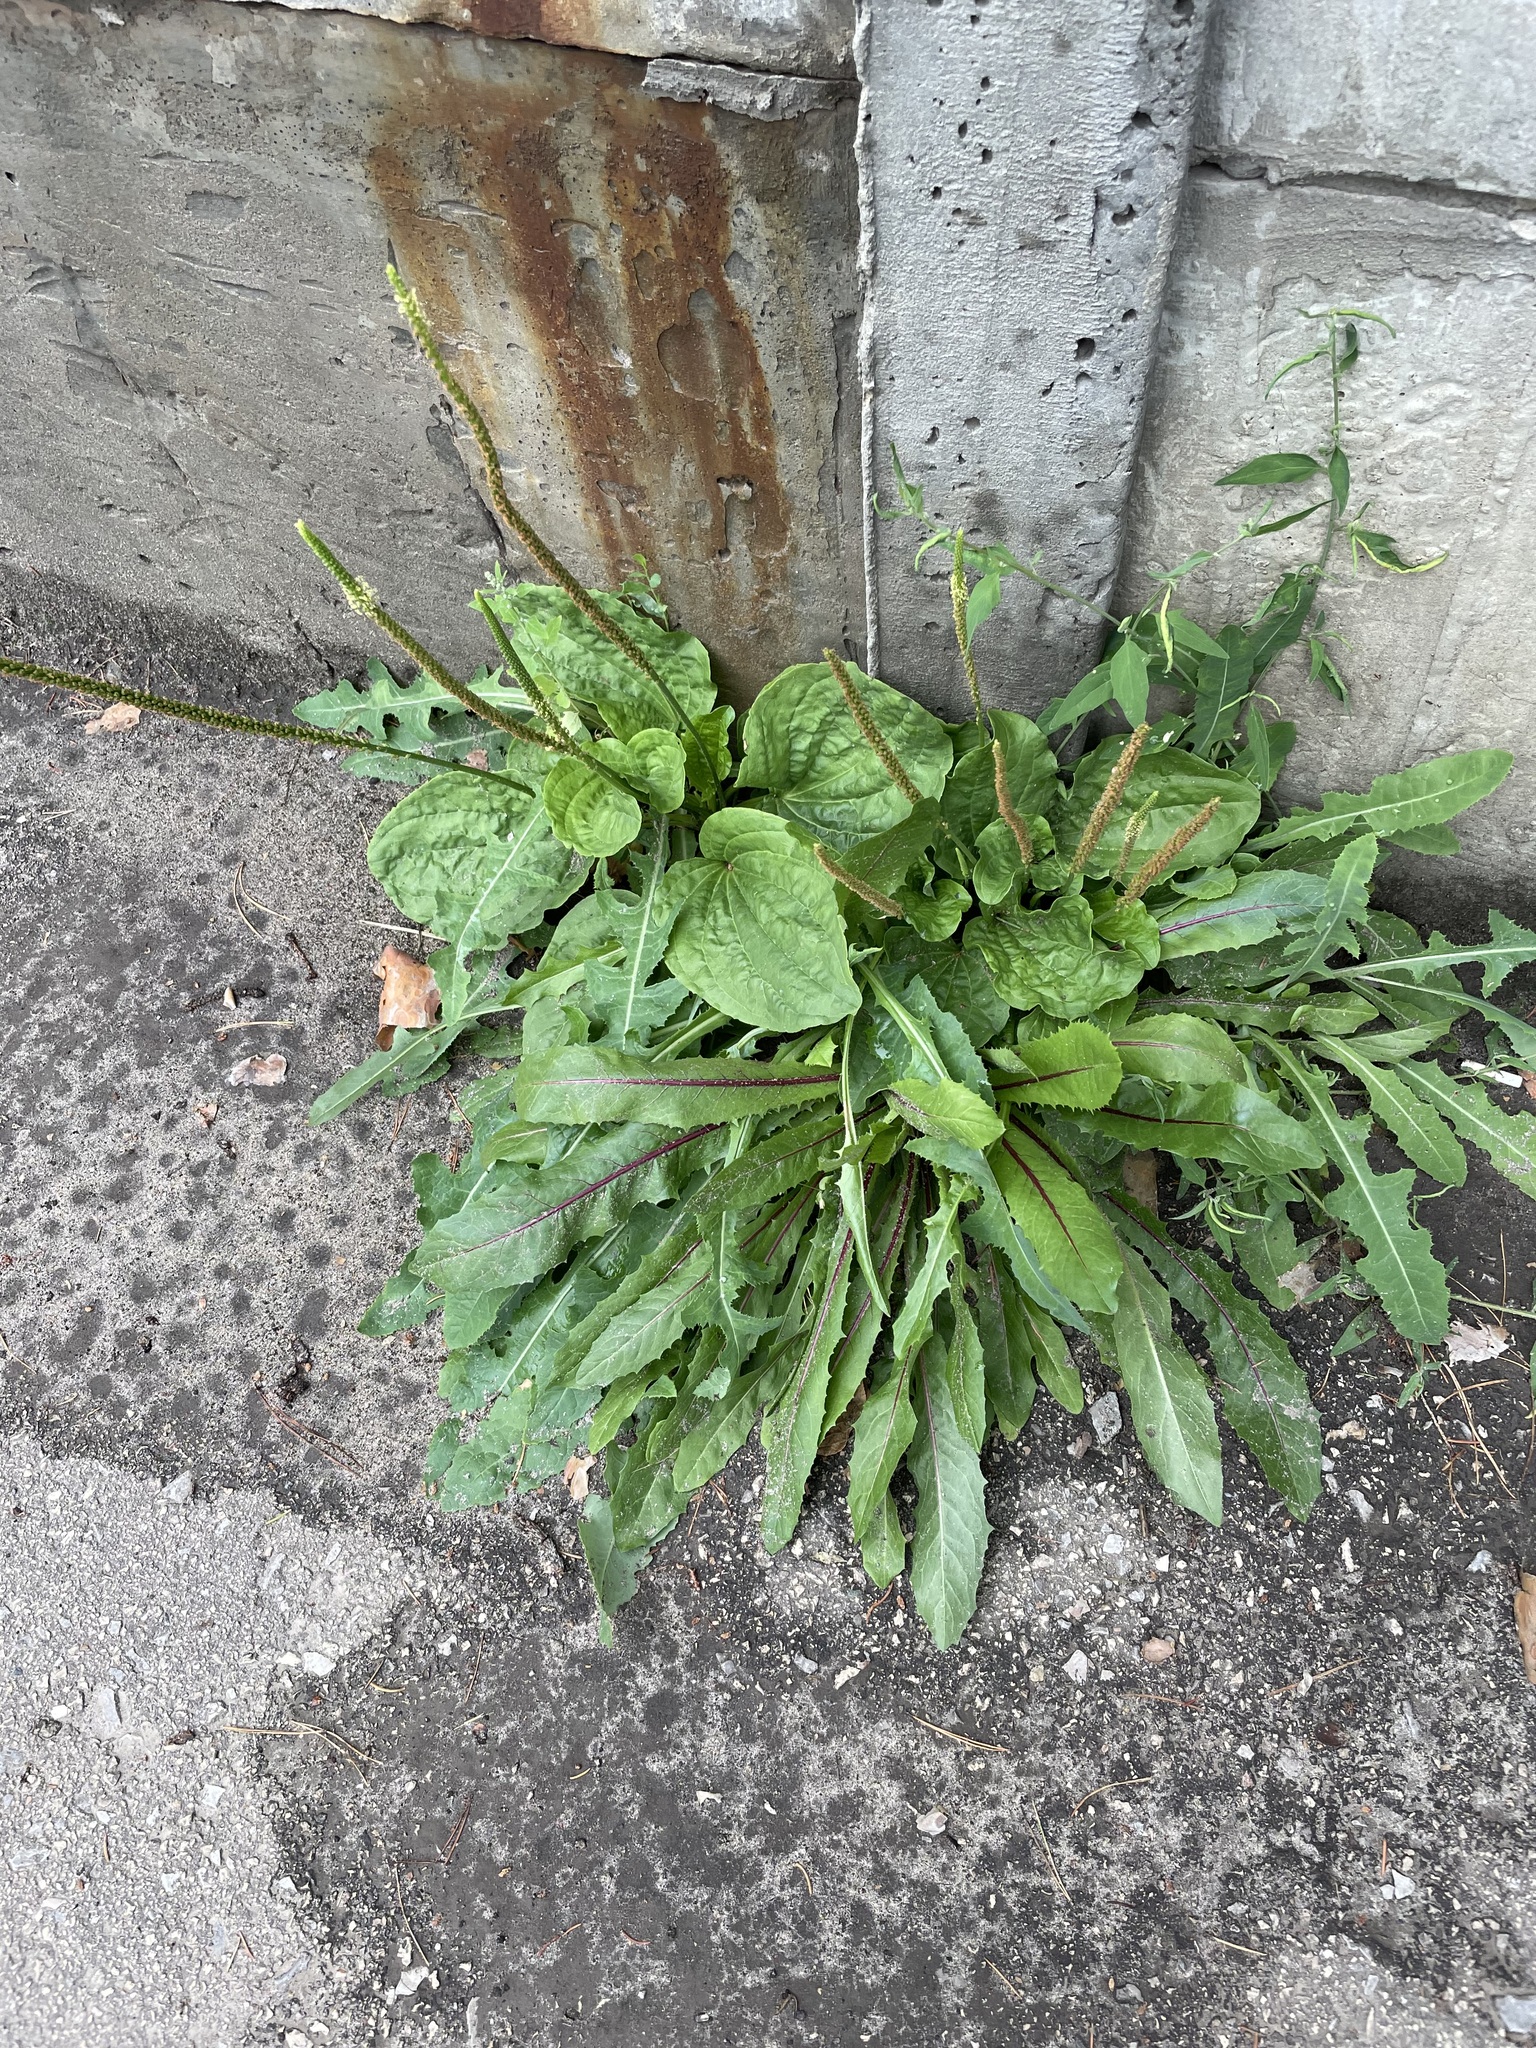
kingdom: Plantae
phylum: Tracheophyta
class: Magnoliopsida
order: Lamiales
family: Plantaginaceae
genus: Plantago
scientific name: Plantago major
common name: Common plantain
